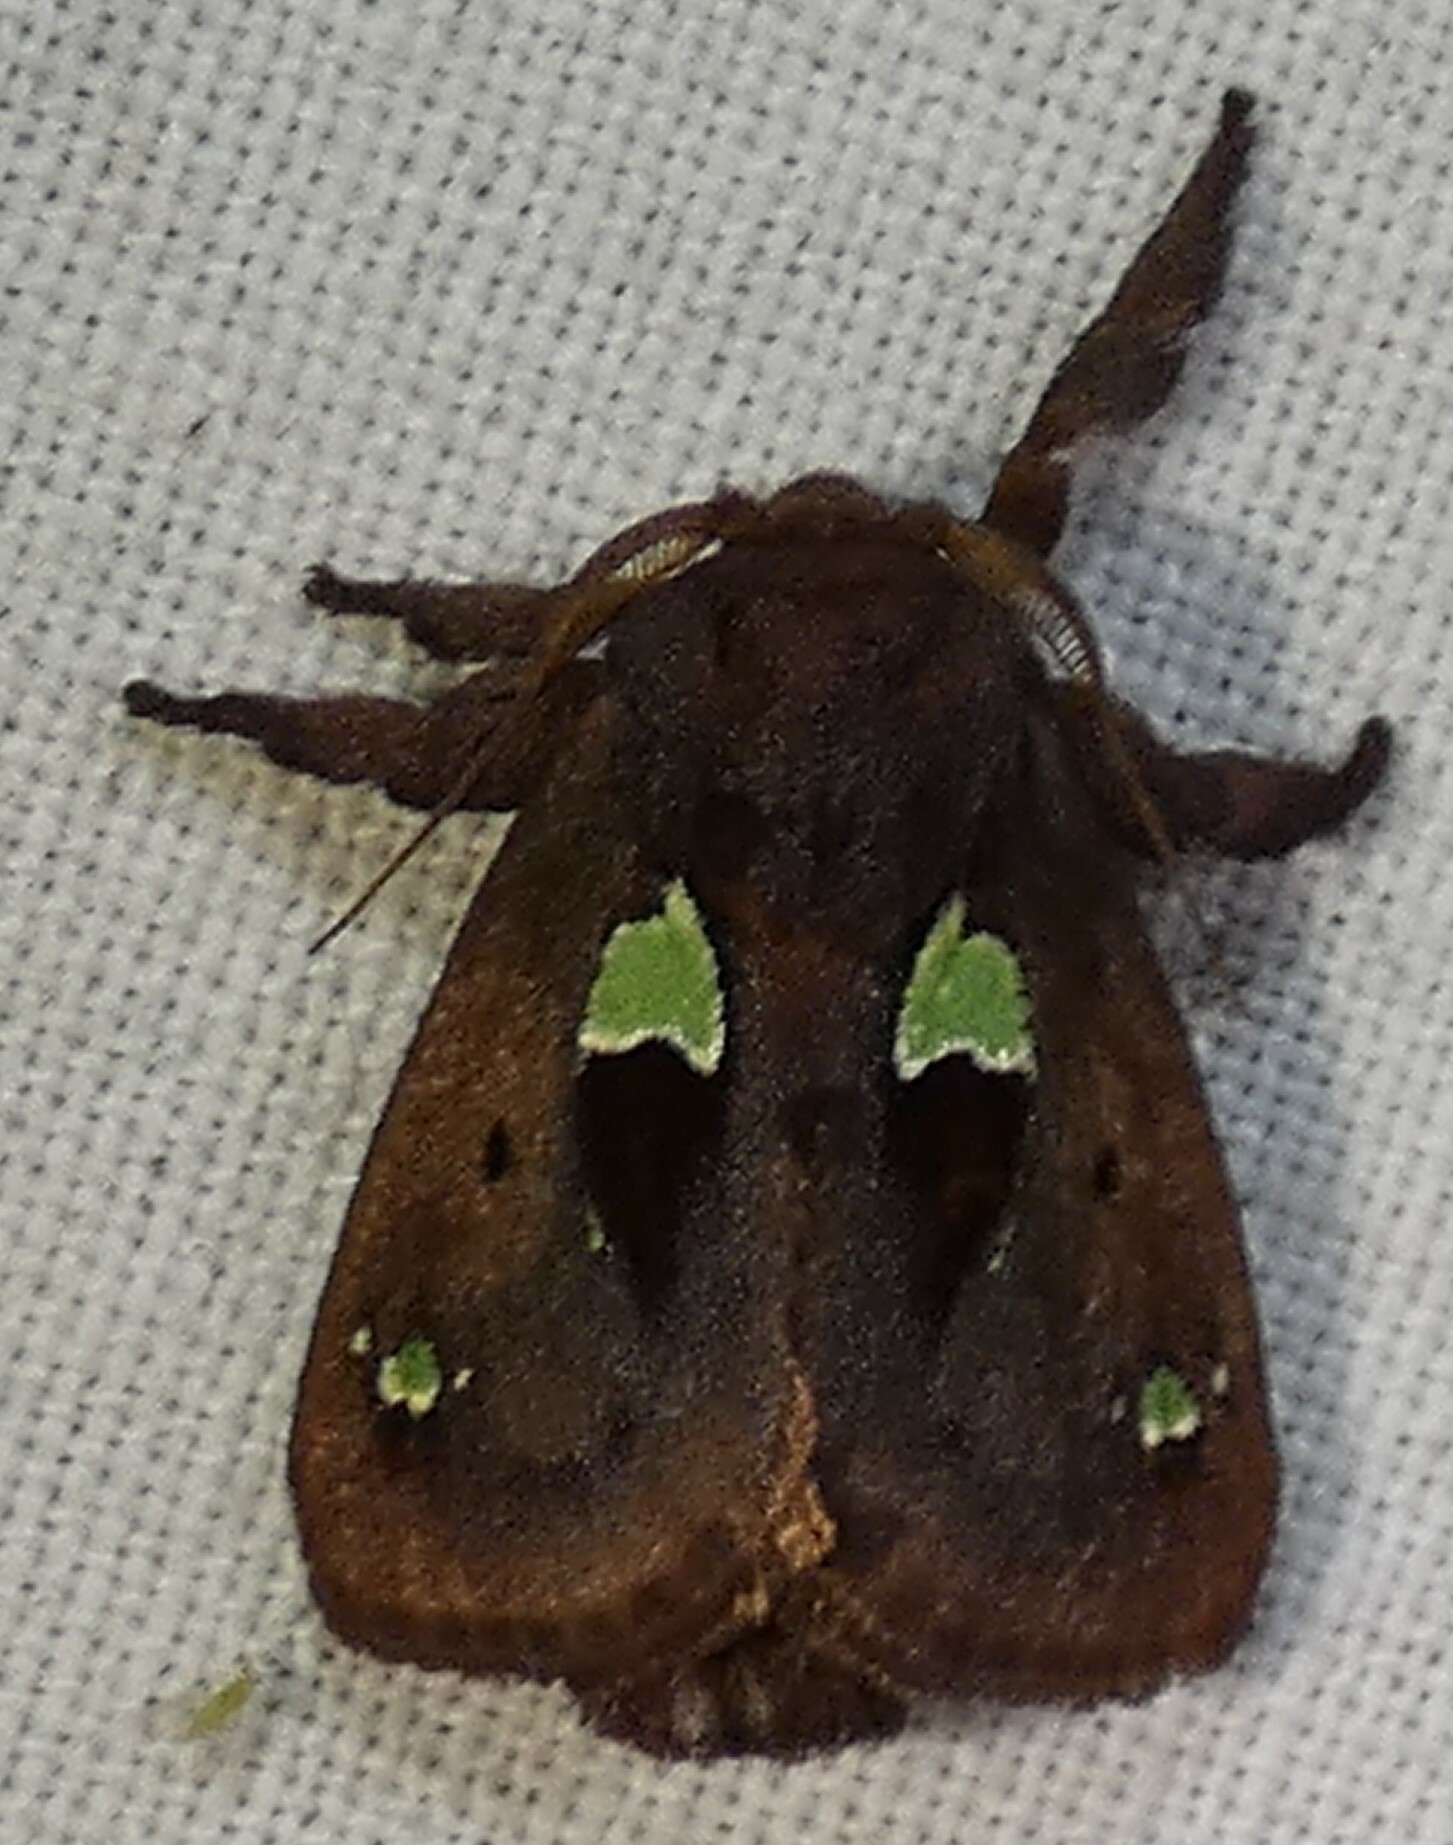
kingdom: Animalia
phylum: Arthropoda
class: Insecta
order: Lepidoptera
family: Limacodidae
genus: Euclea
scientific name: Euclea delphinii
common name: Spiny oak-slug moth
